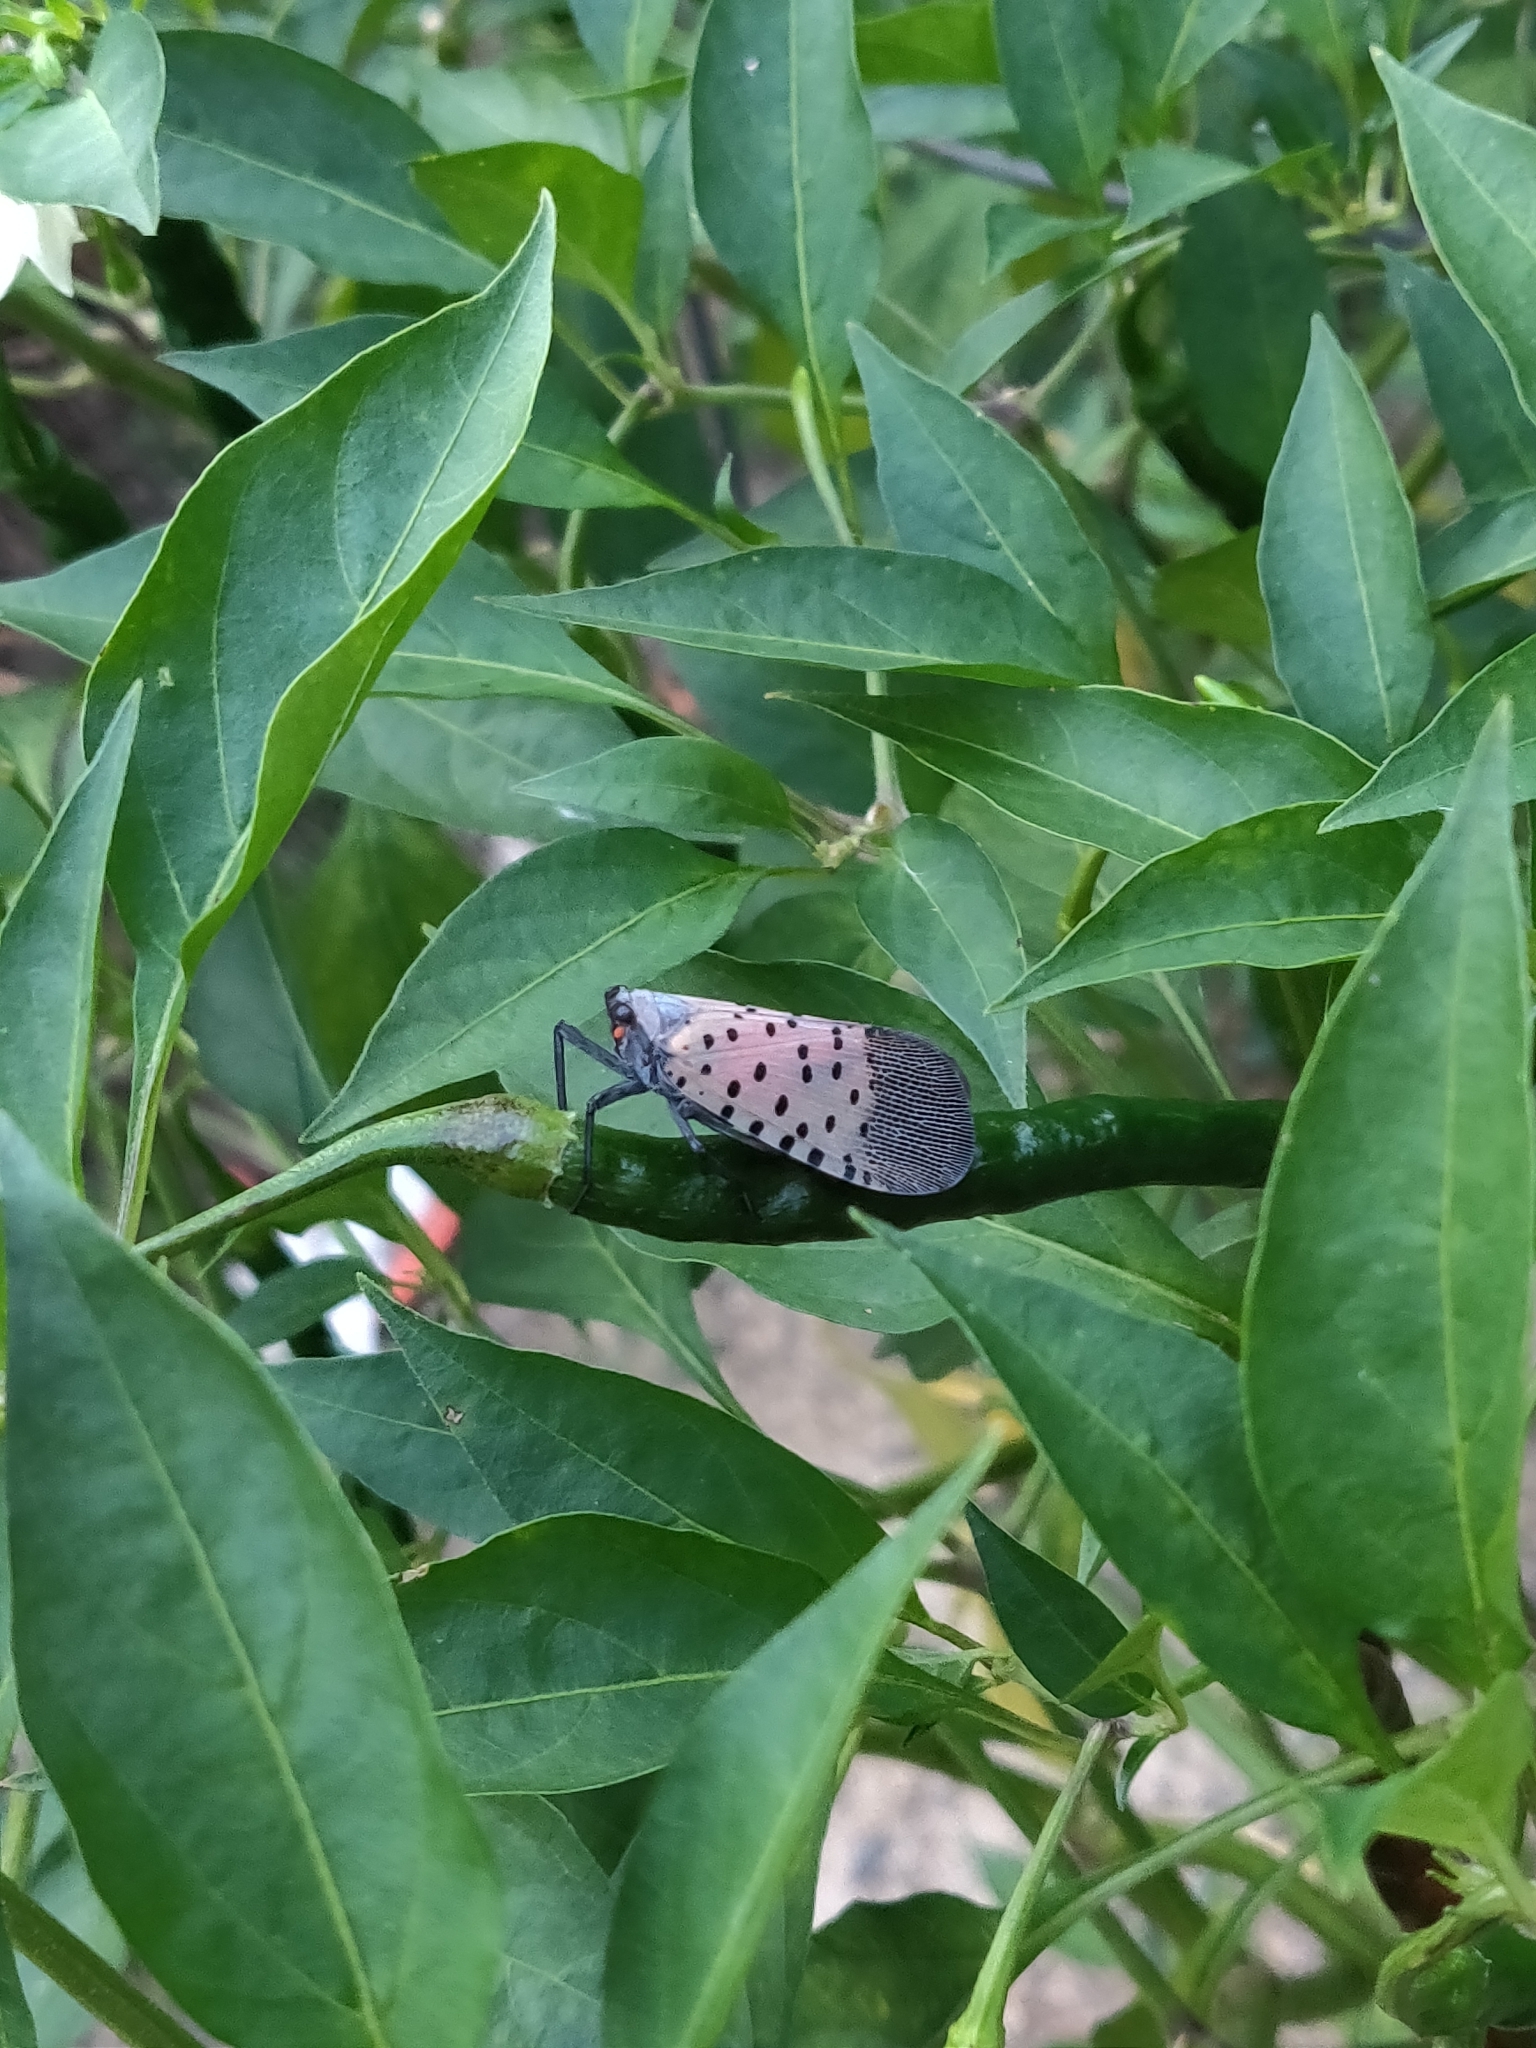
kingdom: Animalia
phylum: Arthropoda
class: Insecta
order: Hemiptera
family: Fulgoridae
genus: Lycorma
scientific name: Lycorma delicatula
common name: Spotted lanternfly
